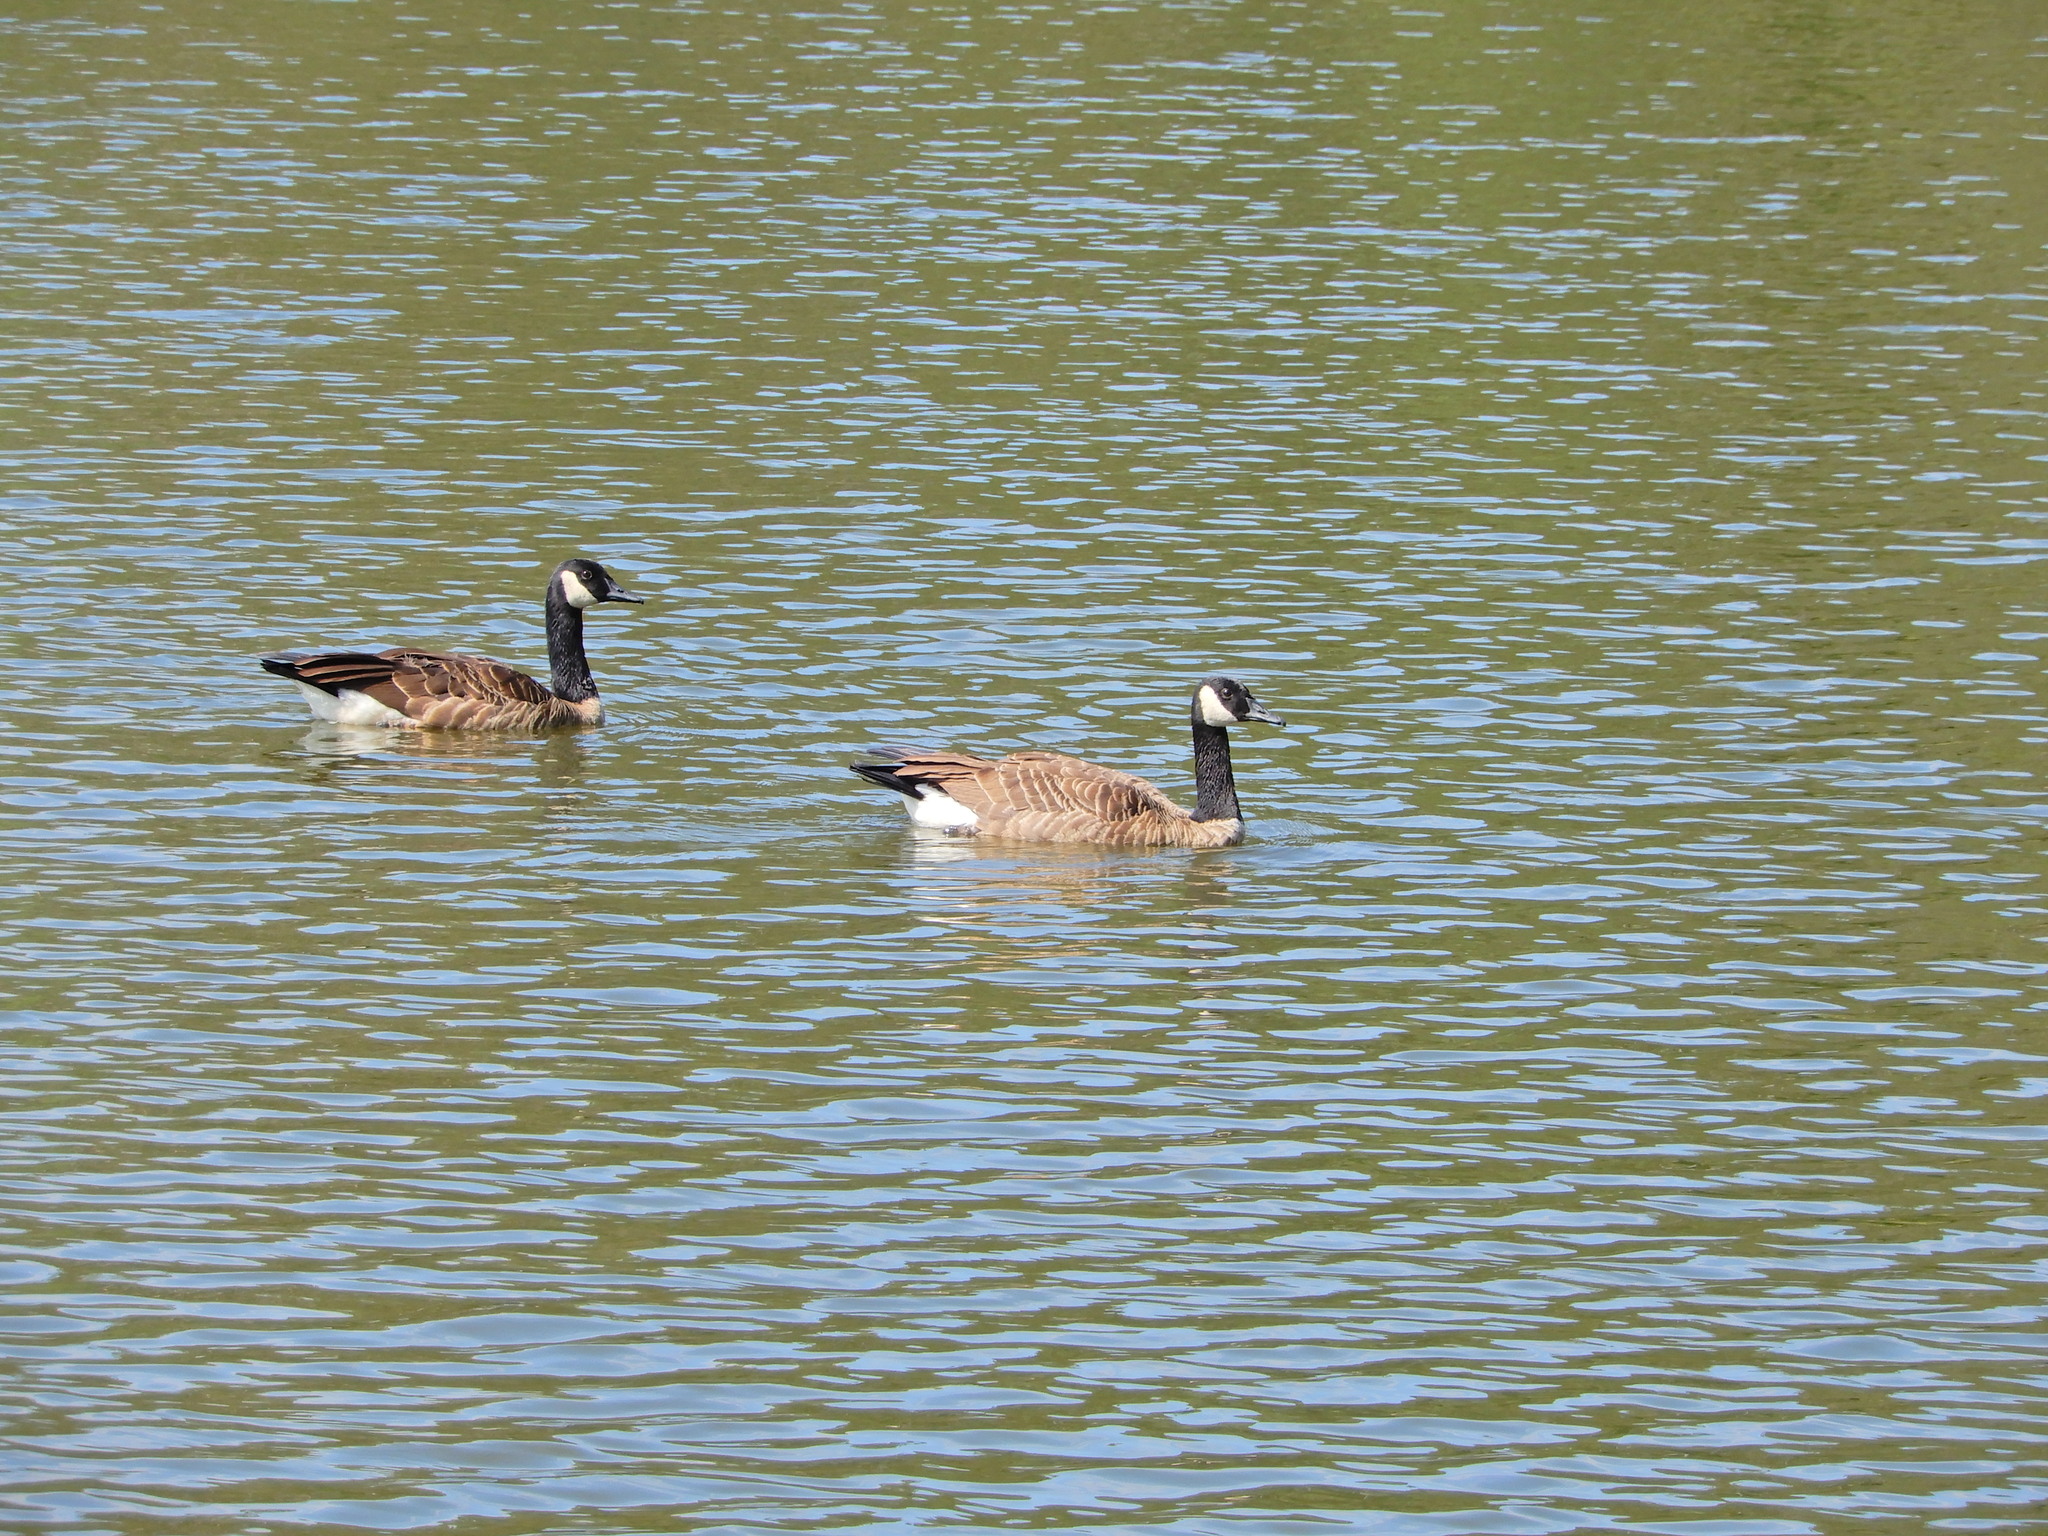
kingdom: Animalia
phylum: Chordata
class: Aves
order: Anseriformes
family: Anatidae
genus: Branta
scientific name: Branta canadensis
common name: Canada goose
